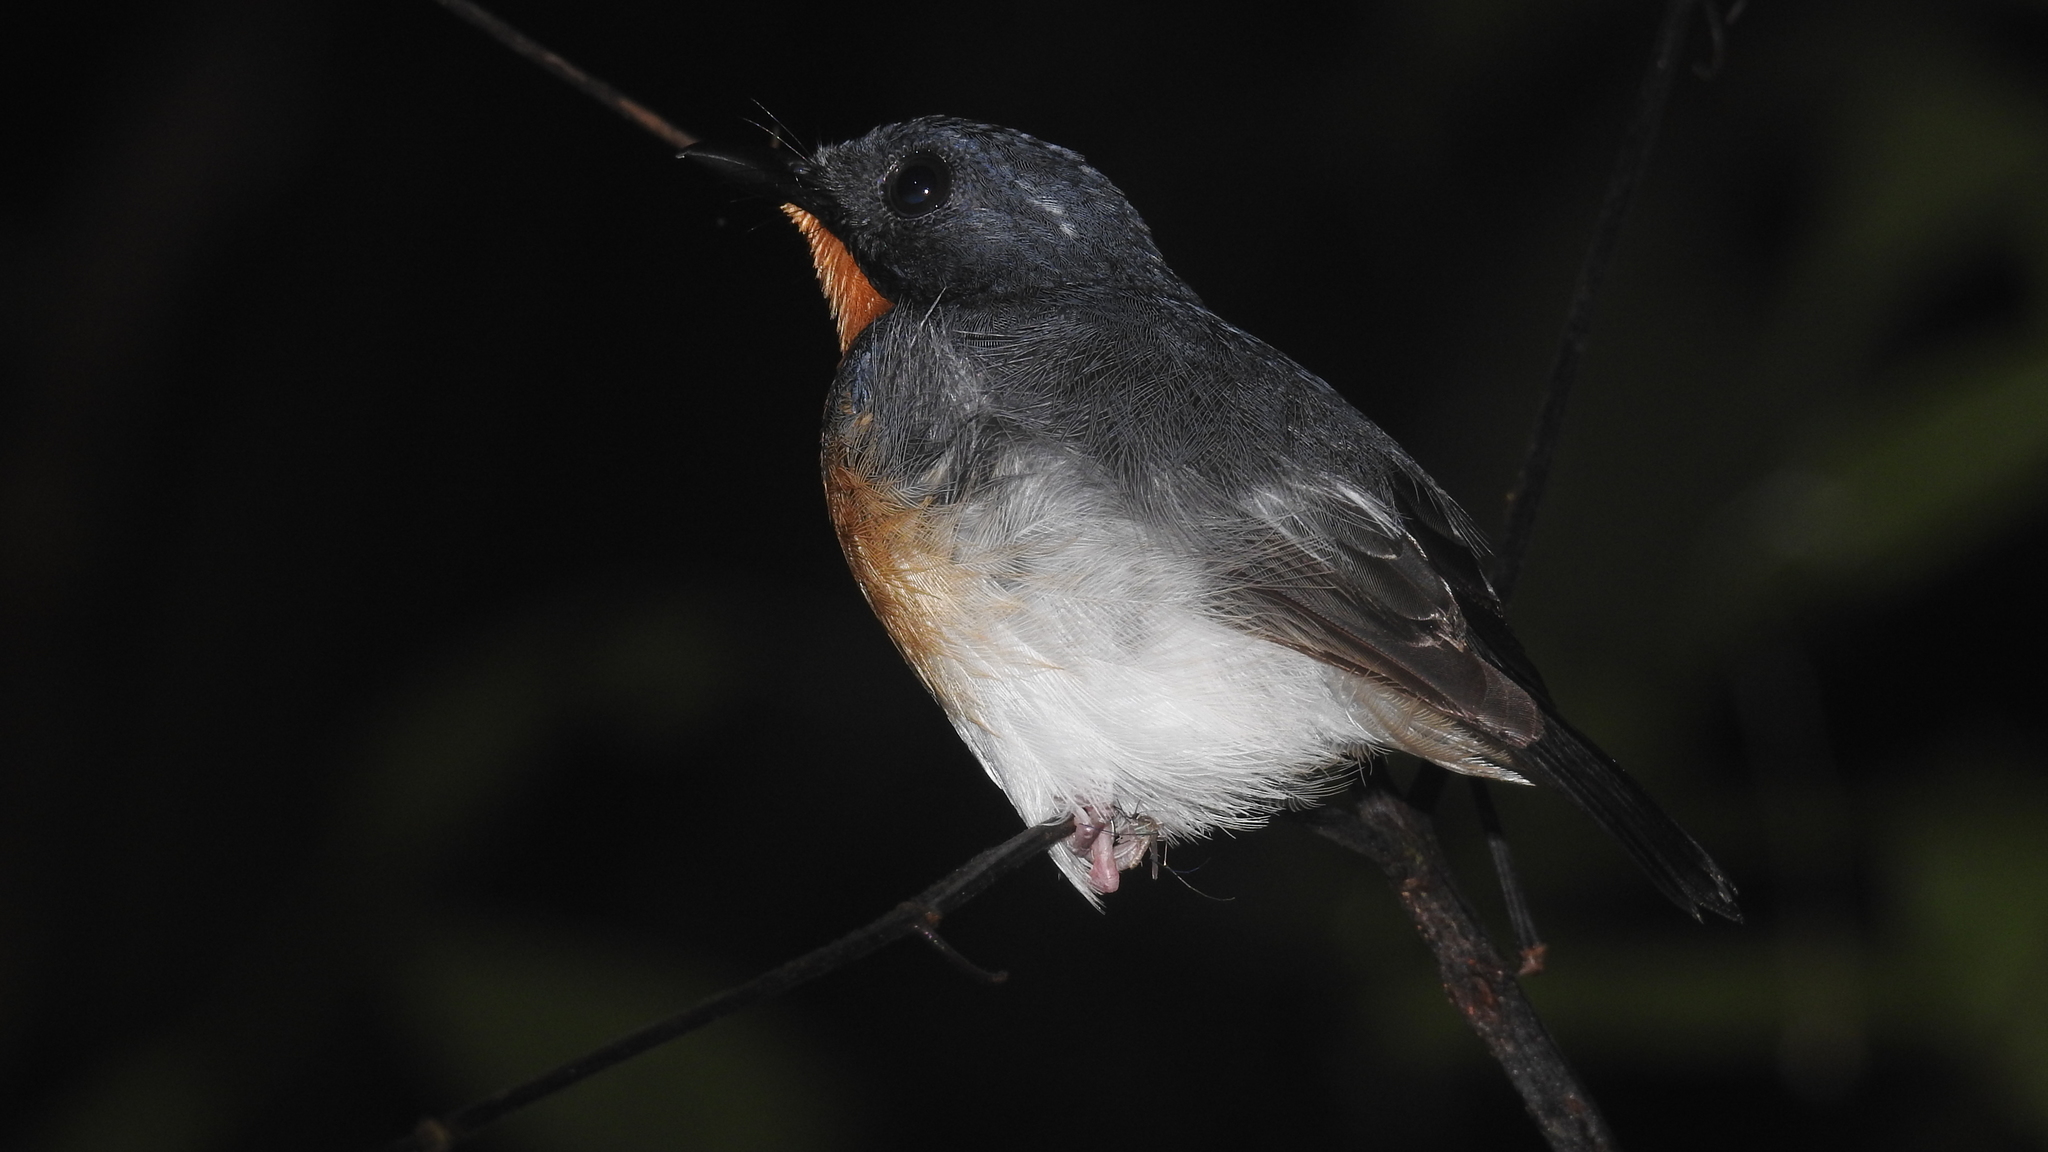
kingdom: Animalia
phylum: Chordata
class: Aves
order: Passeriformes
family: Muscicapidae
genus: Ficedula
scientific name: Ficedula rufigula
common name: Rufous-throated flycatcher
